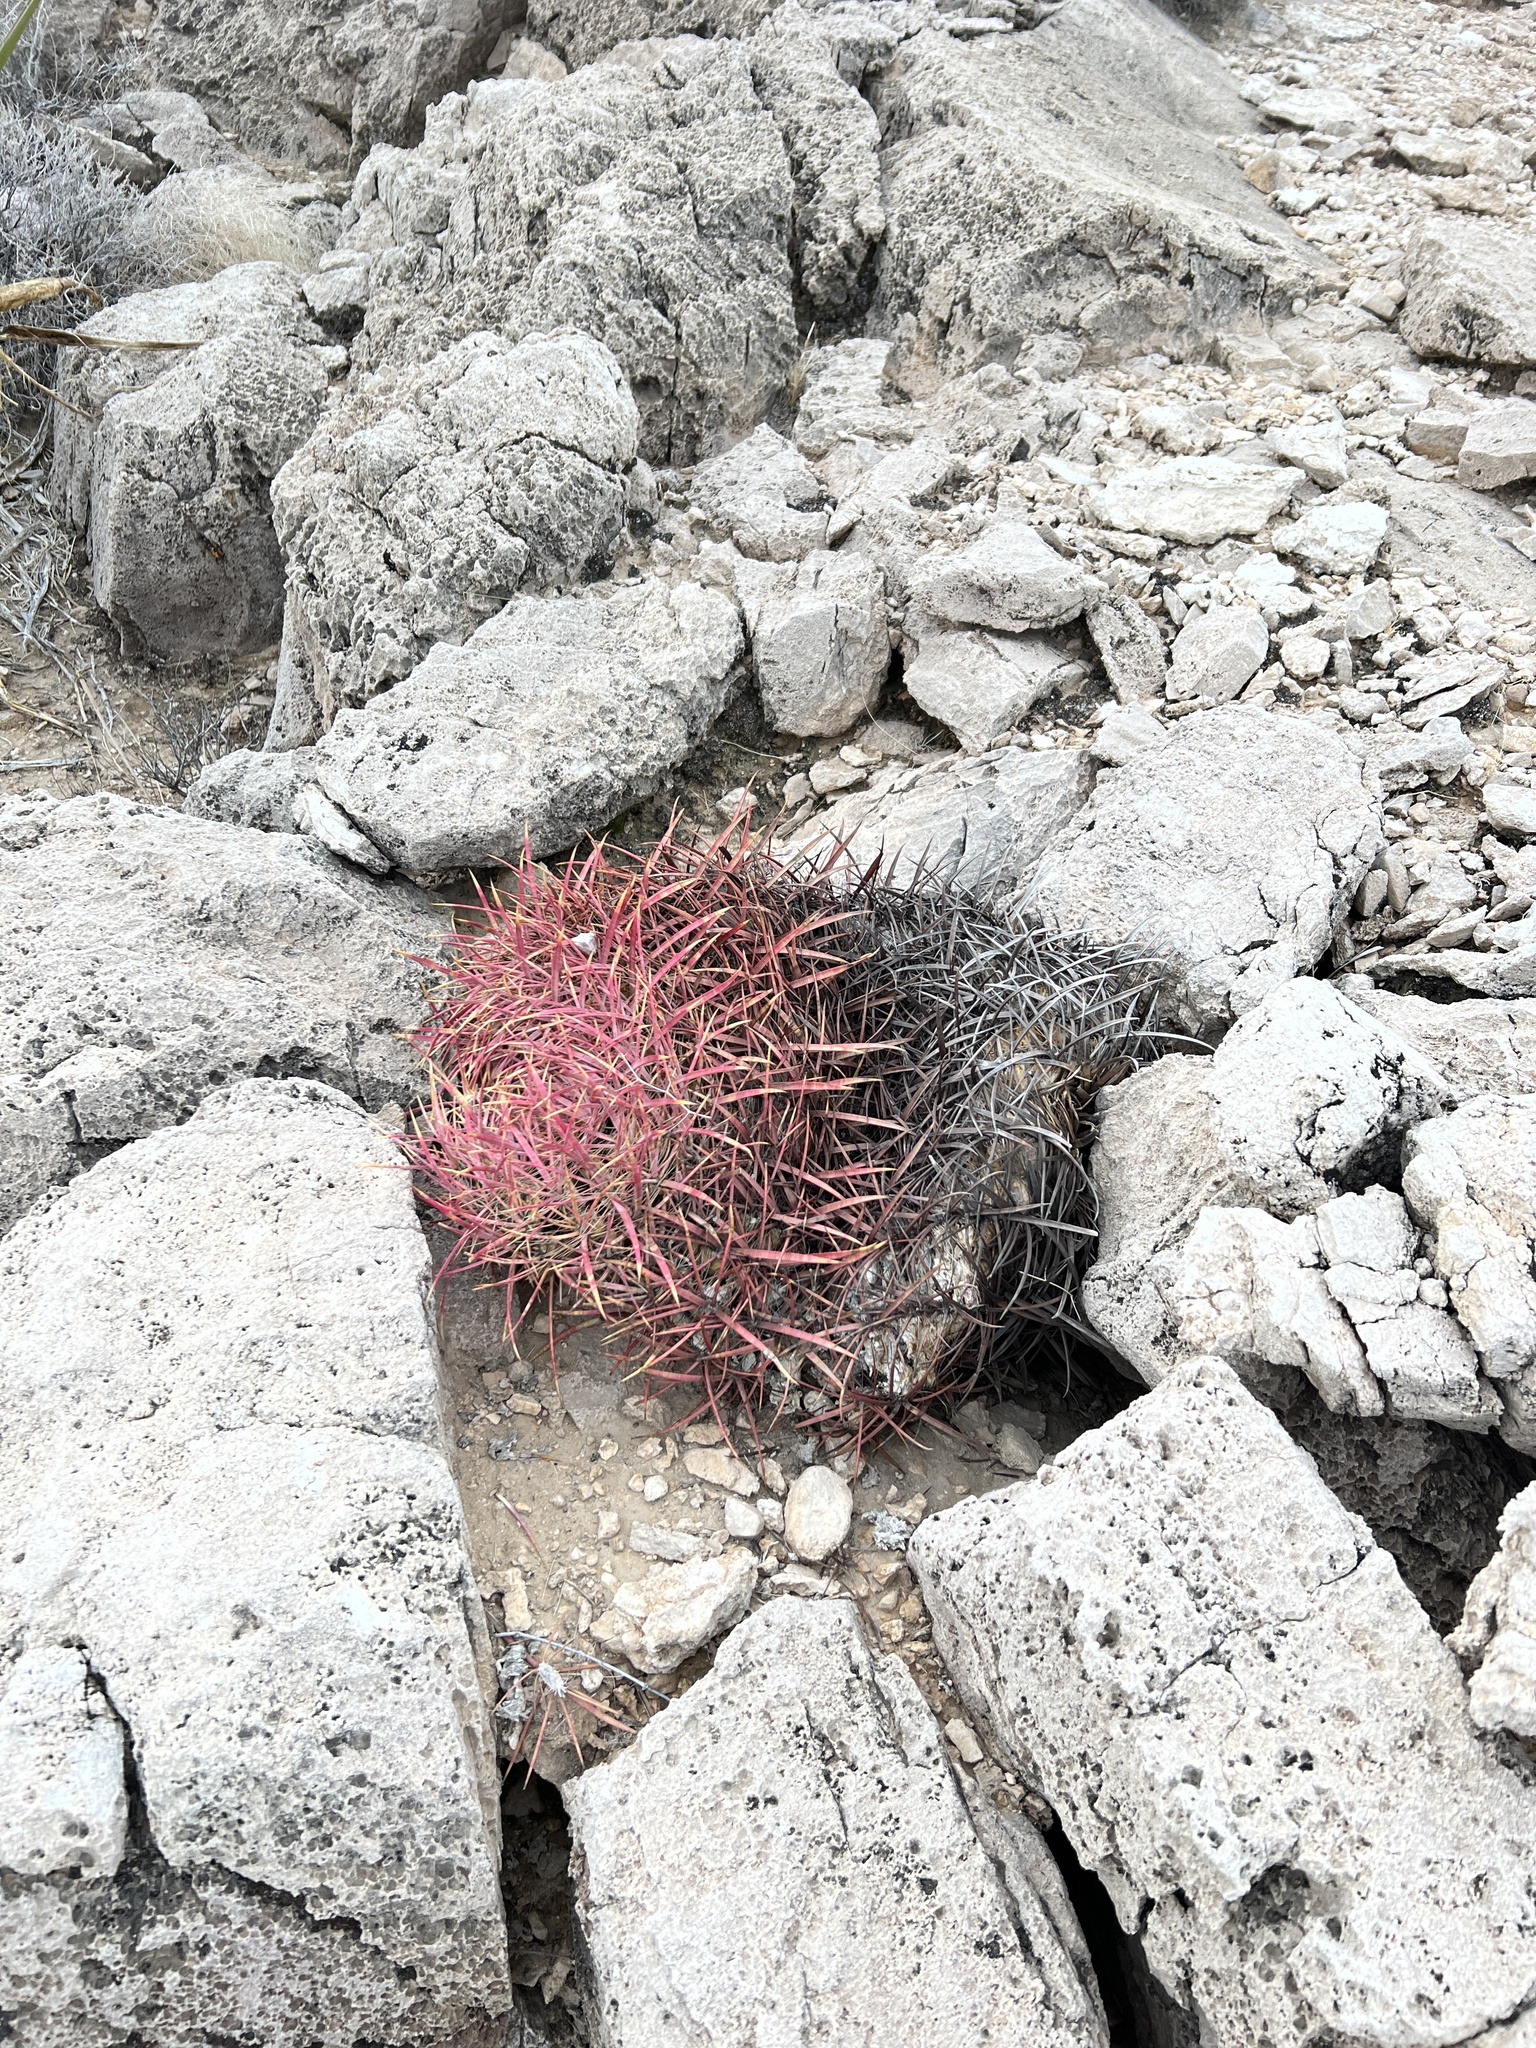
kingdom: Plantae
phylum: Tracheophyta
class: Magnoliopsida
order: Caryophyllales
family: Cactaceae
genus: Ferocactus
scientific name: Ferocactus cylindraceus
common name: California barrel cactus
